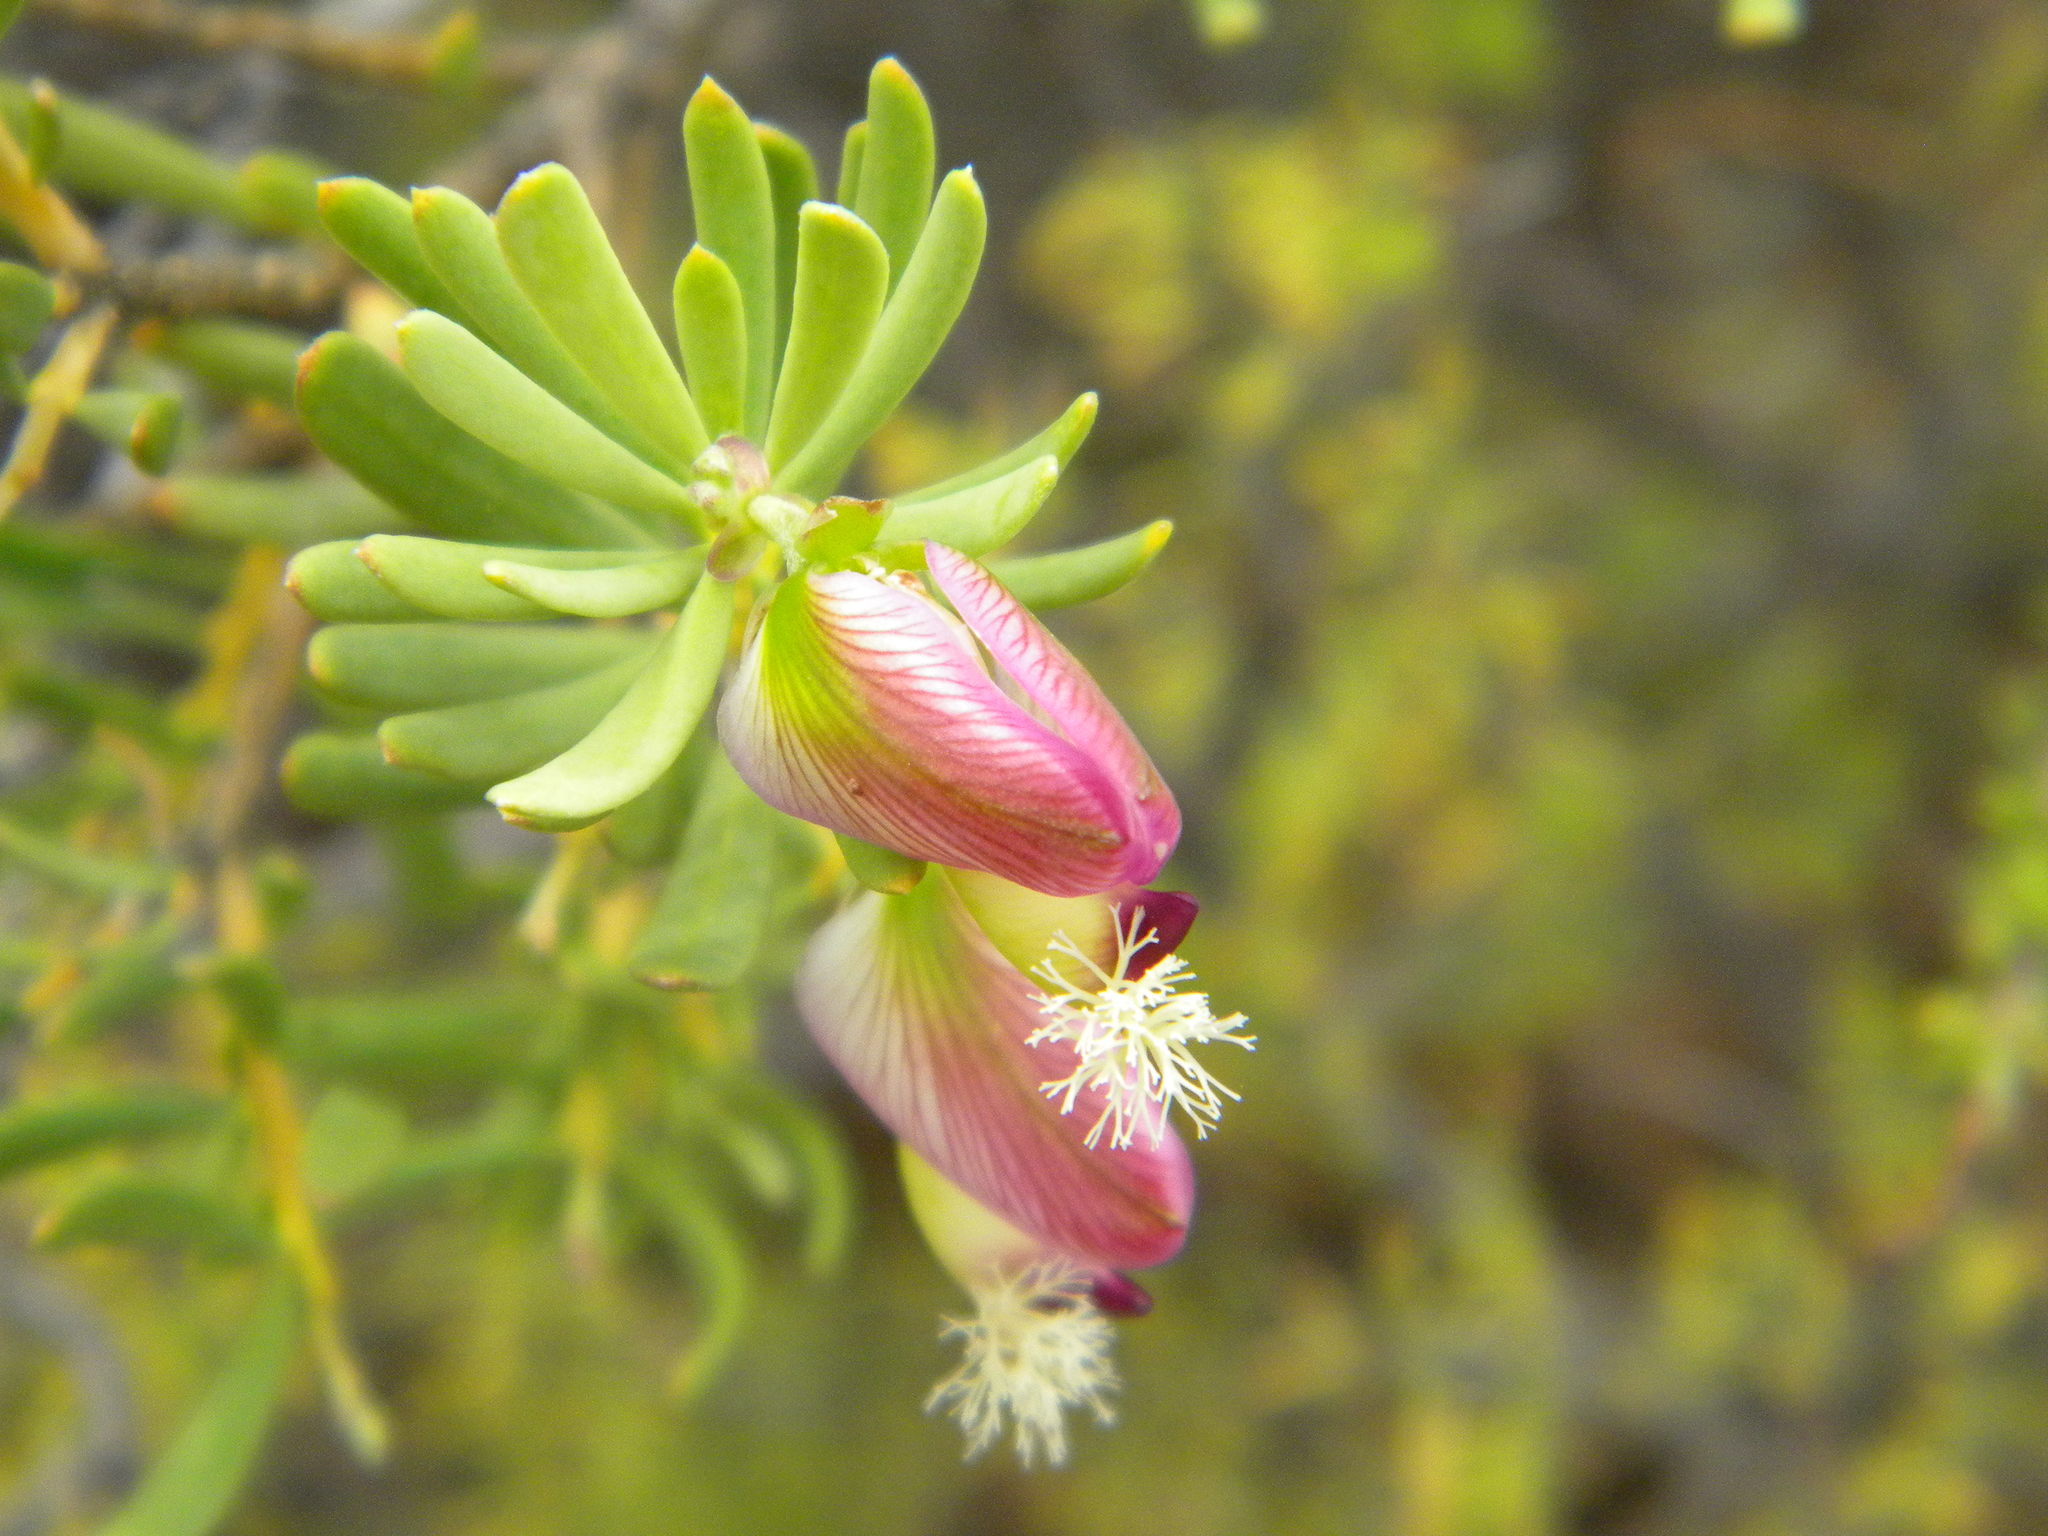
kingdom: Plantae
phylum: Tracheophyta
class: Magnoliopsida
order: Fabales
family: Polygalaceae
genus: Polygala
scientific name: Polygala myrtifolia
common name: Myrtle-leaf milkwort
